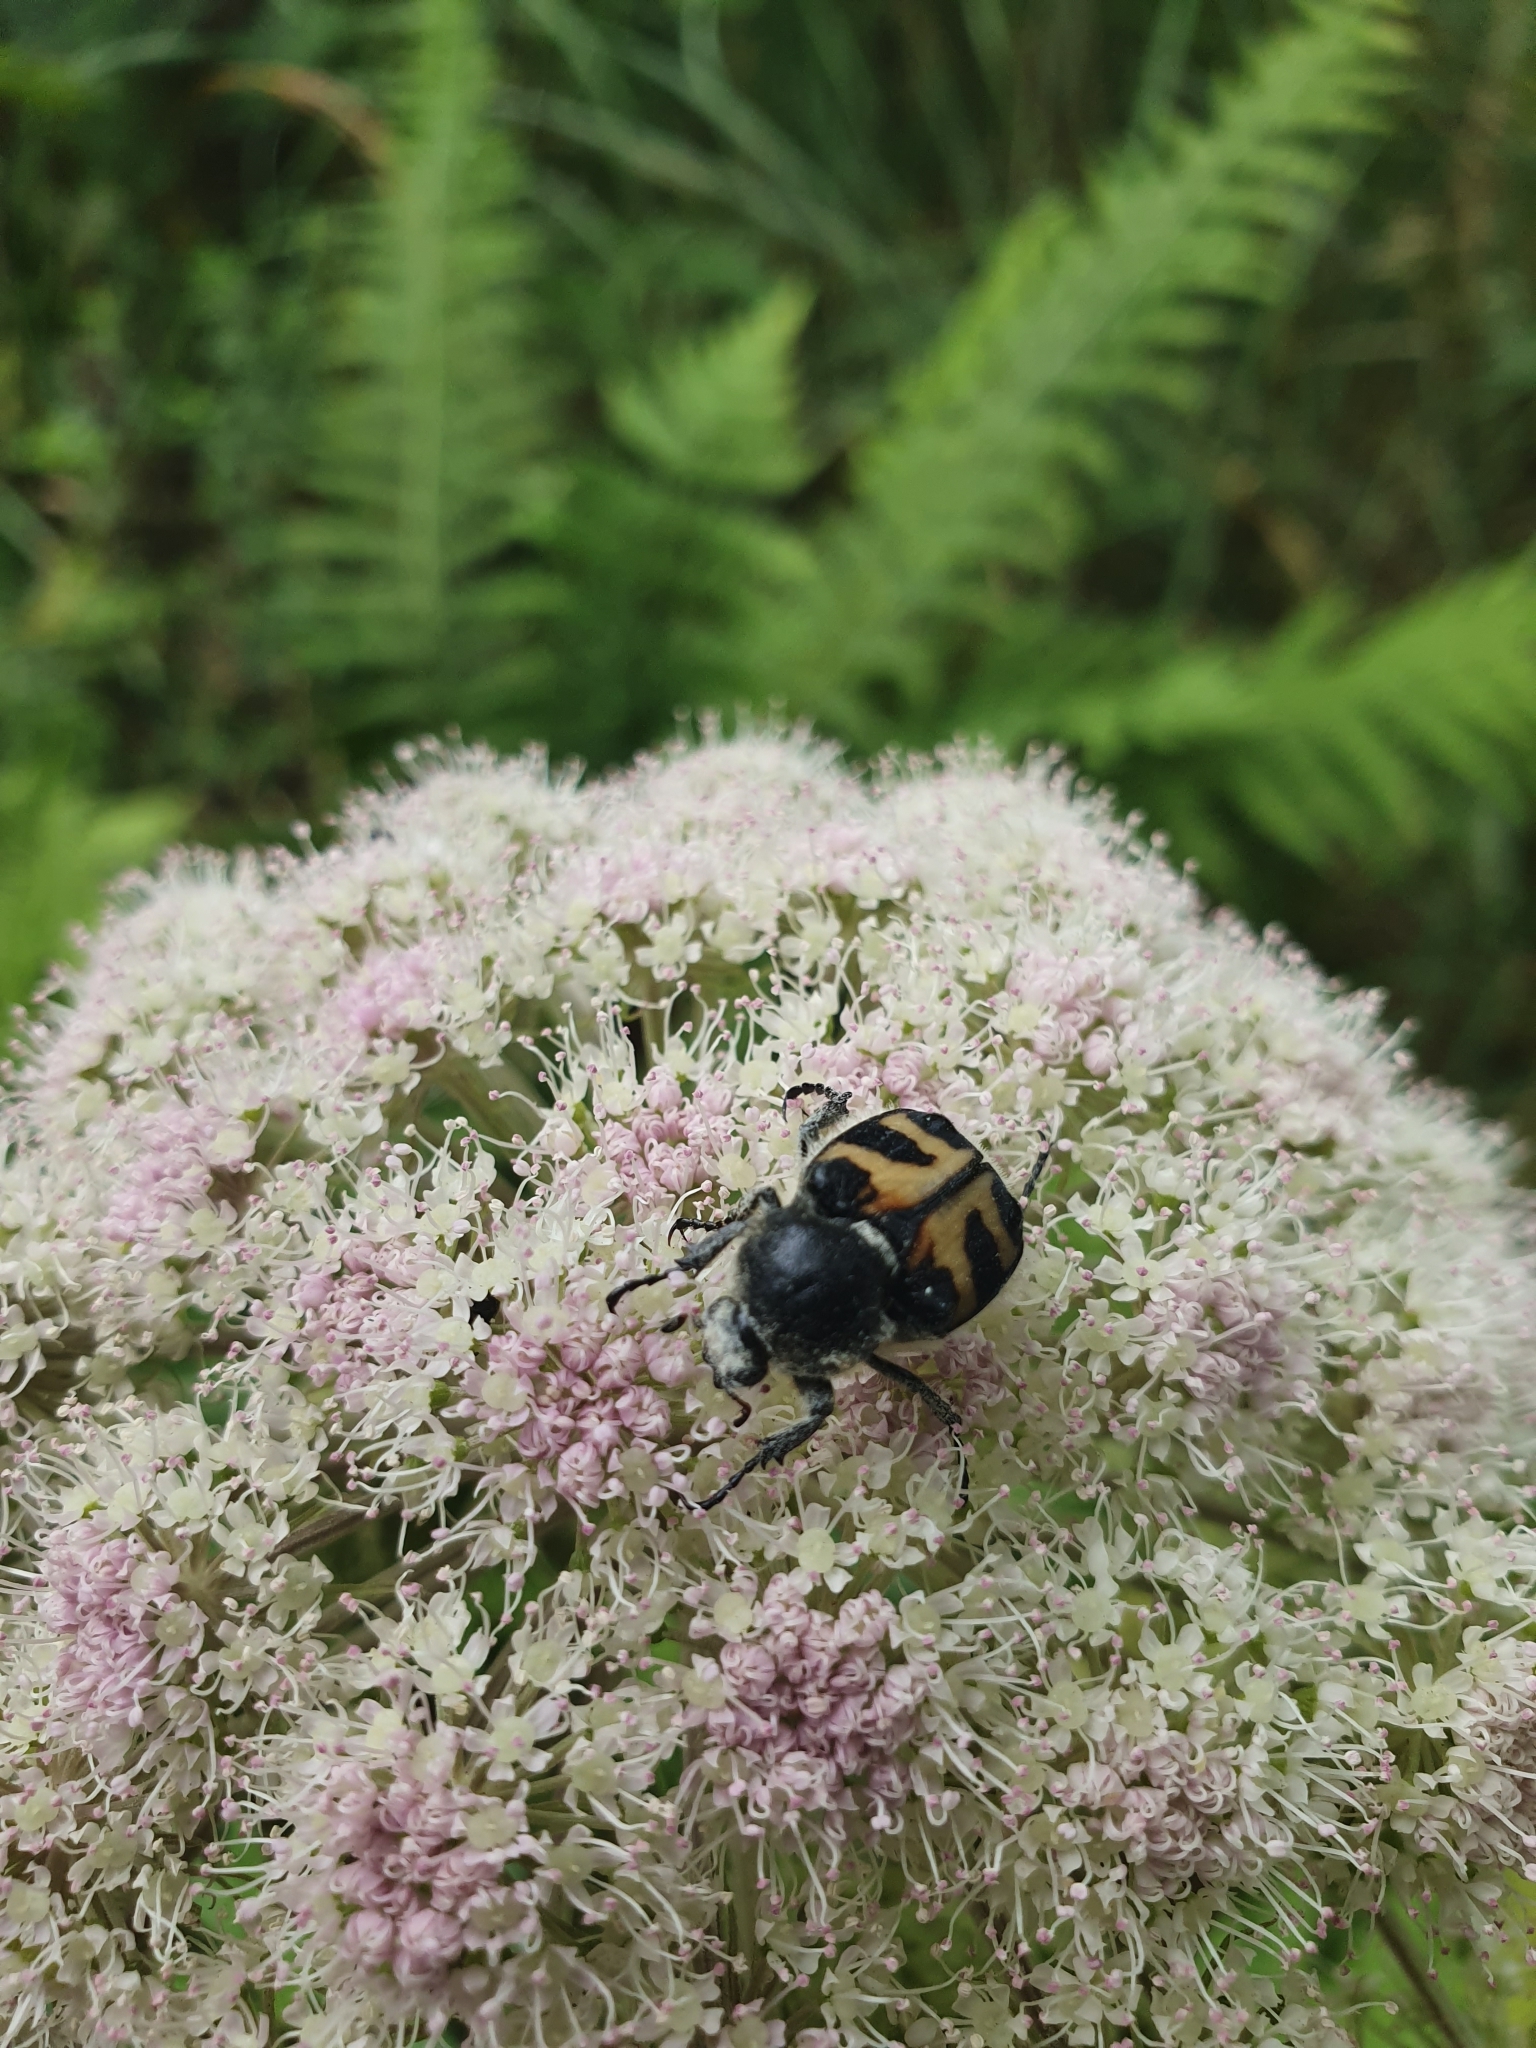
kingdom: Animalia
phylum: Arthropoda
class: Insecta
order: Coleoptera
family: Scarabaeidae
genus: Trichius
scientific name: Trichius fasciatus
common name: Bee beetle
